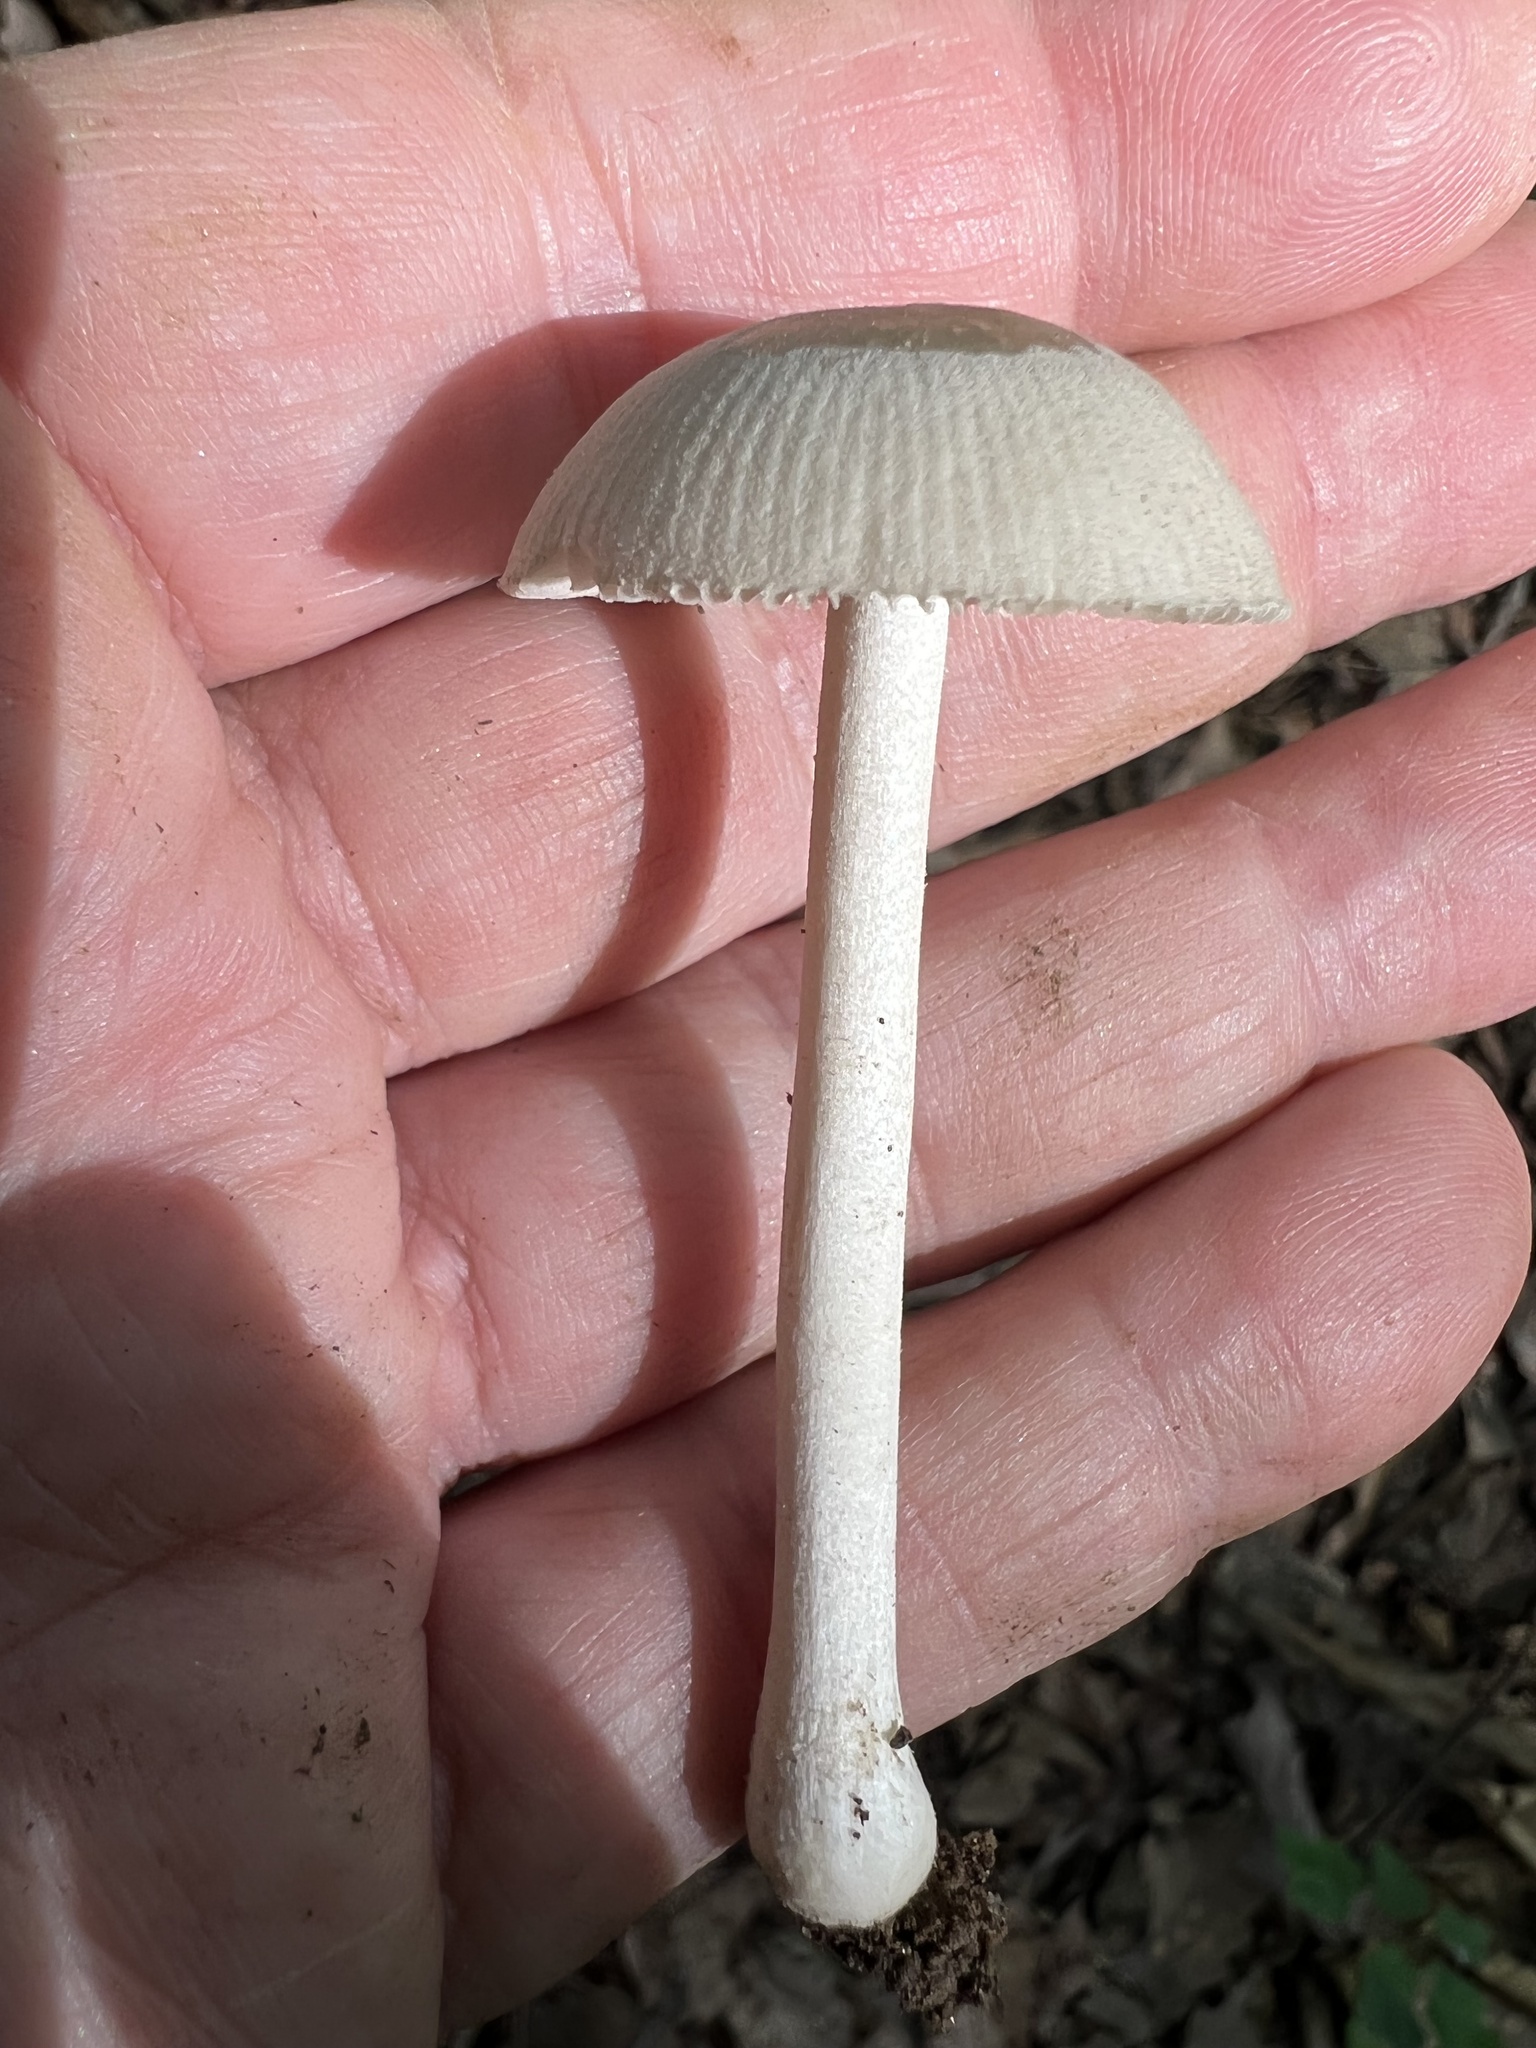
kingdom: Fungi
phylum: Basidiomycota
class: Agaricomycetes
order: Agaricales
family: Amanitaceae
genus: Amanita
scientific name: Amanita farinosa
